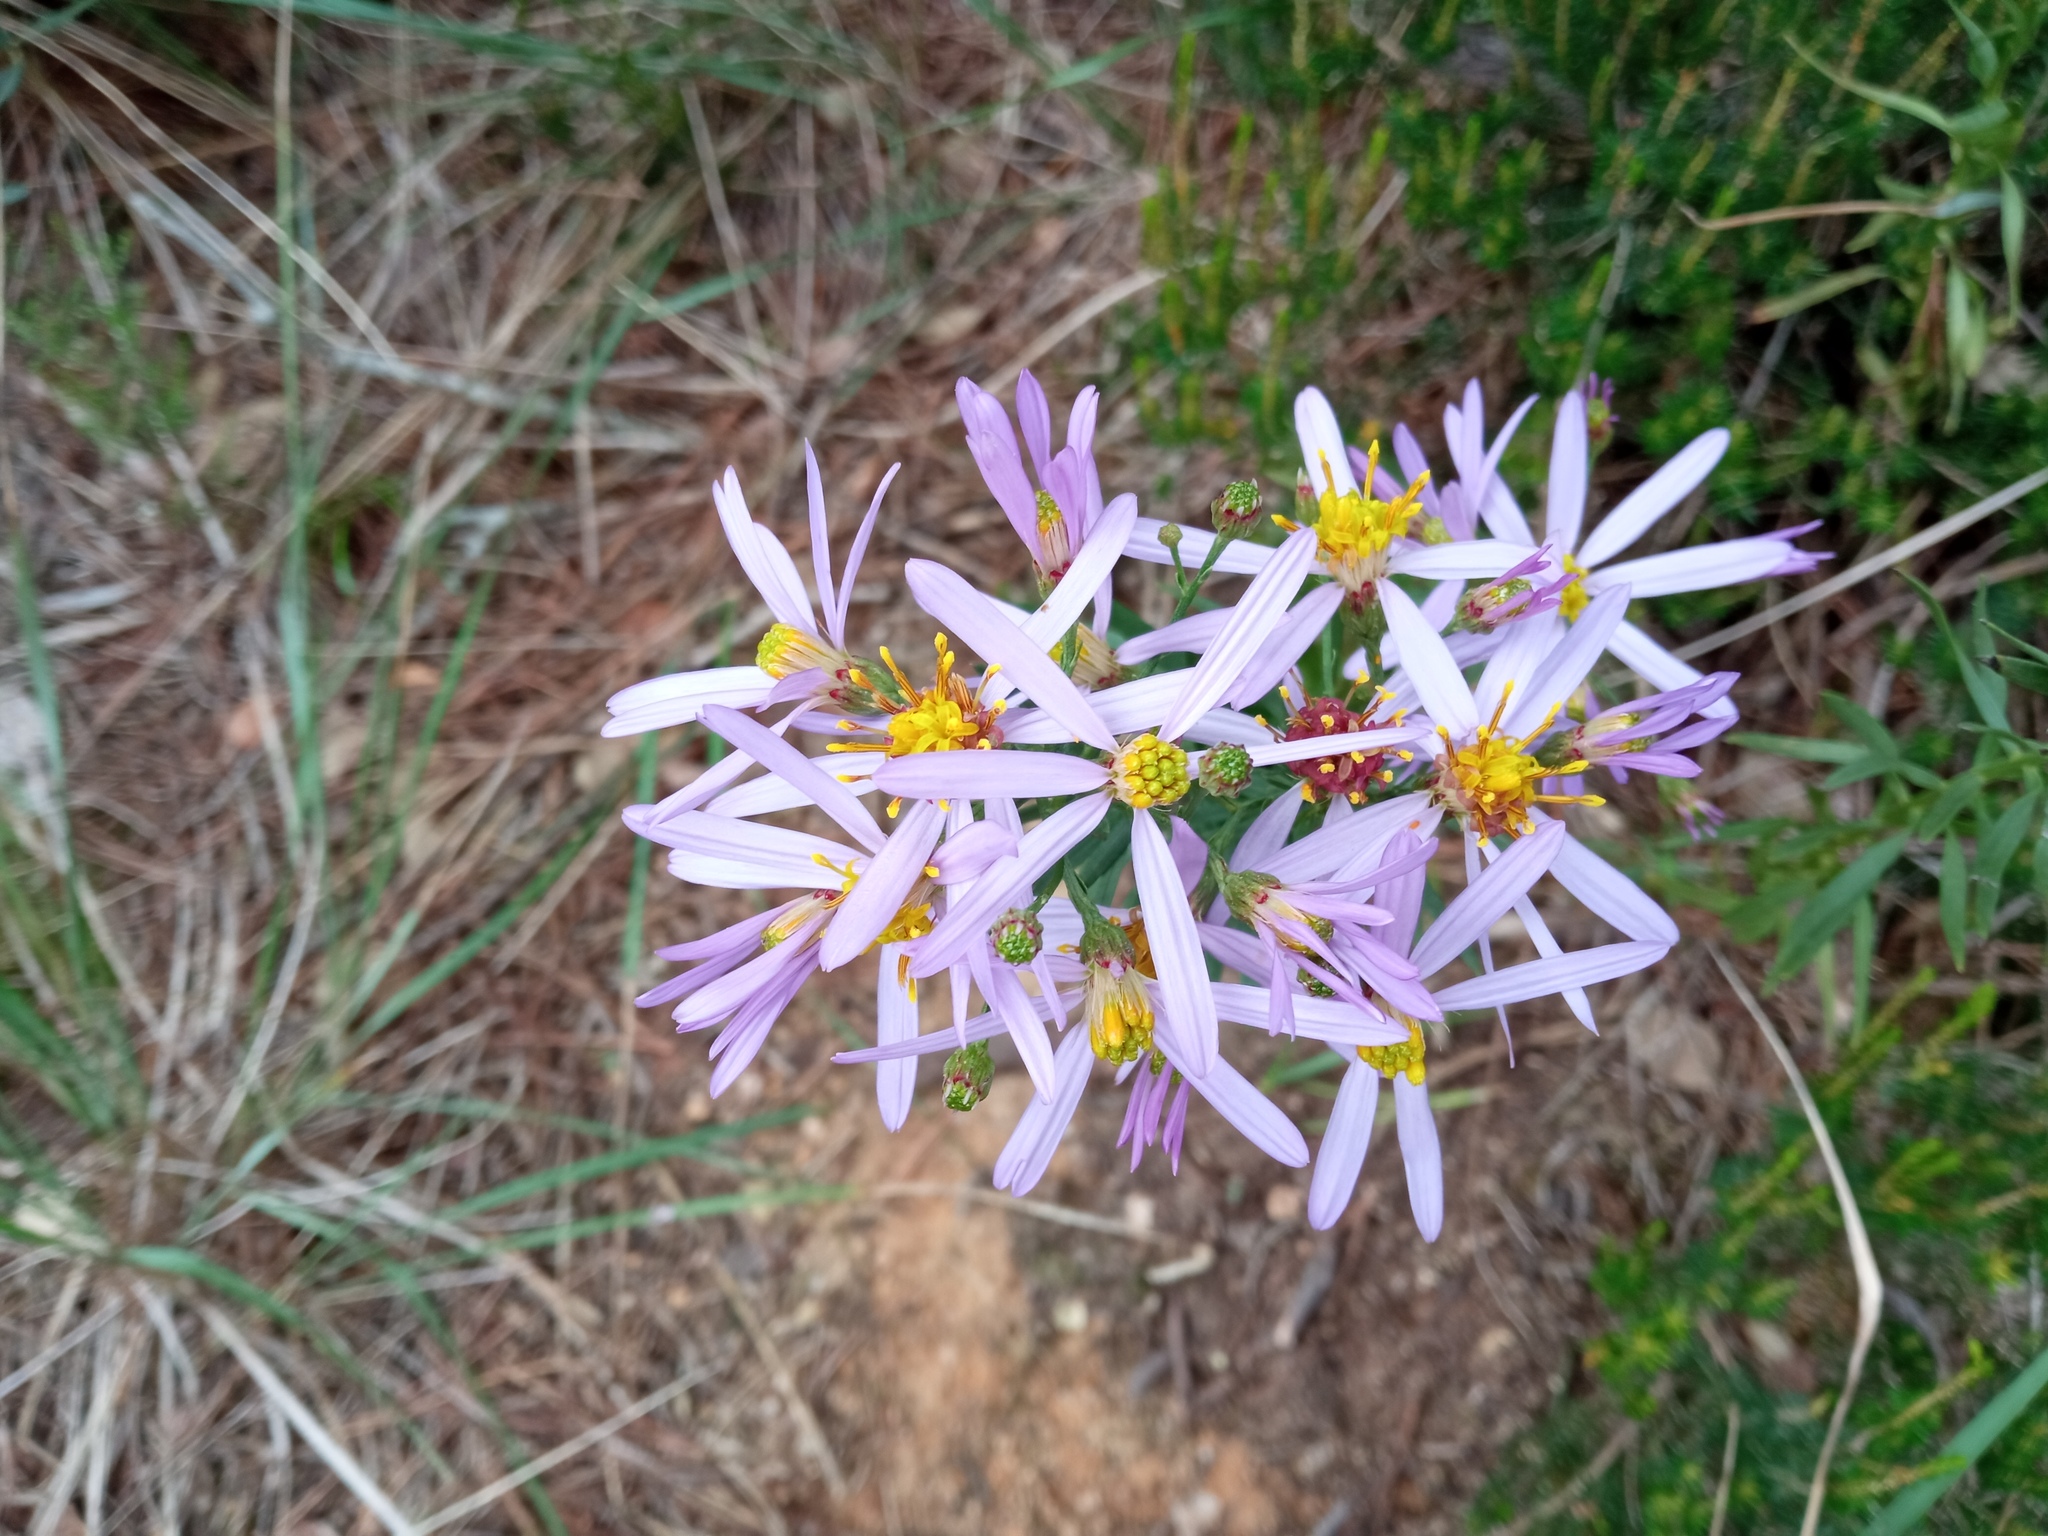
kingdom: Plantae
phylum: Tracheophyta
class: Magnoliopsida
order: Asterales
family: Asteraceae
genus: Galatella
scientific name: Galatella sedifolia
